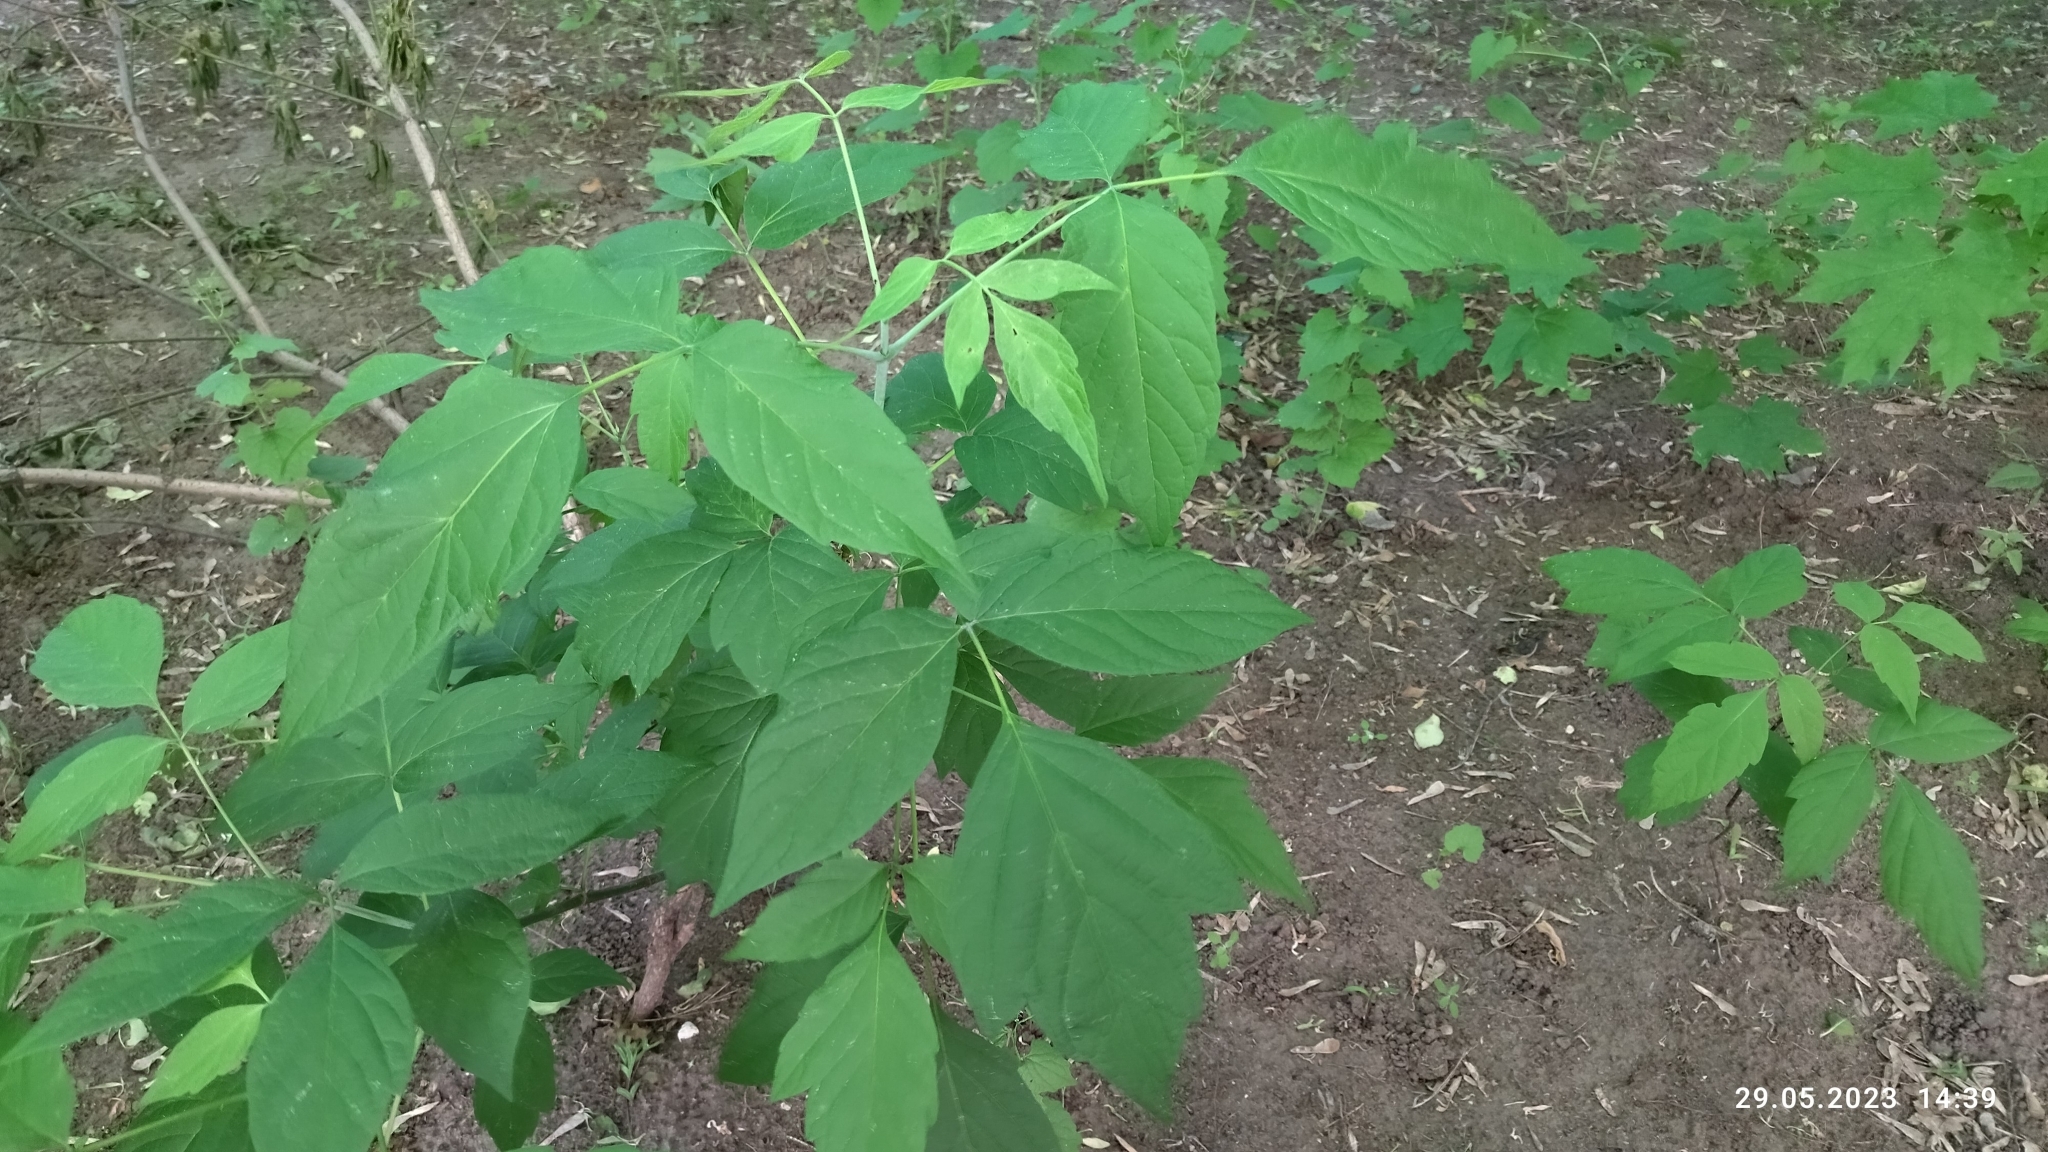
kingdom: Plantae
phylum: Tracheophyta
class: Magnoliopsida
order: Sapindales
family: Sapindaceae
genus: Acer
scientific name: Acer negundo
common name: Ashleaf maple
